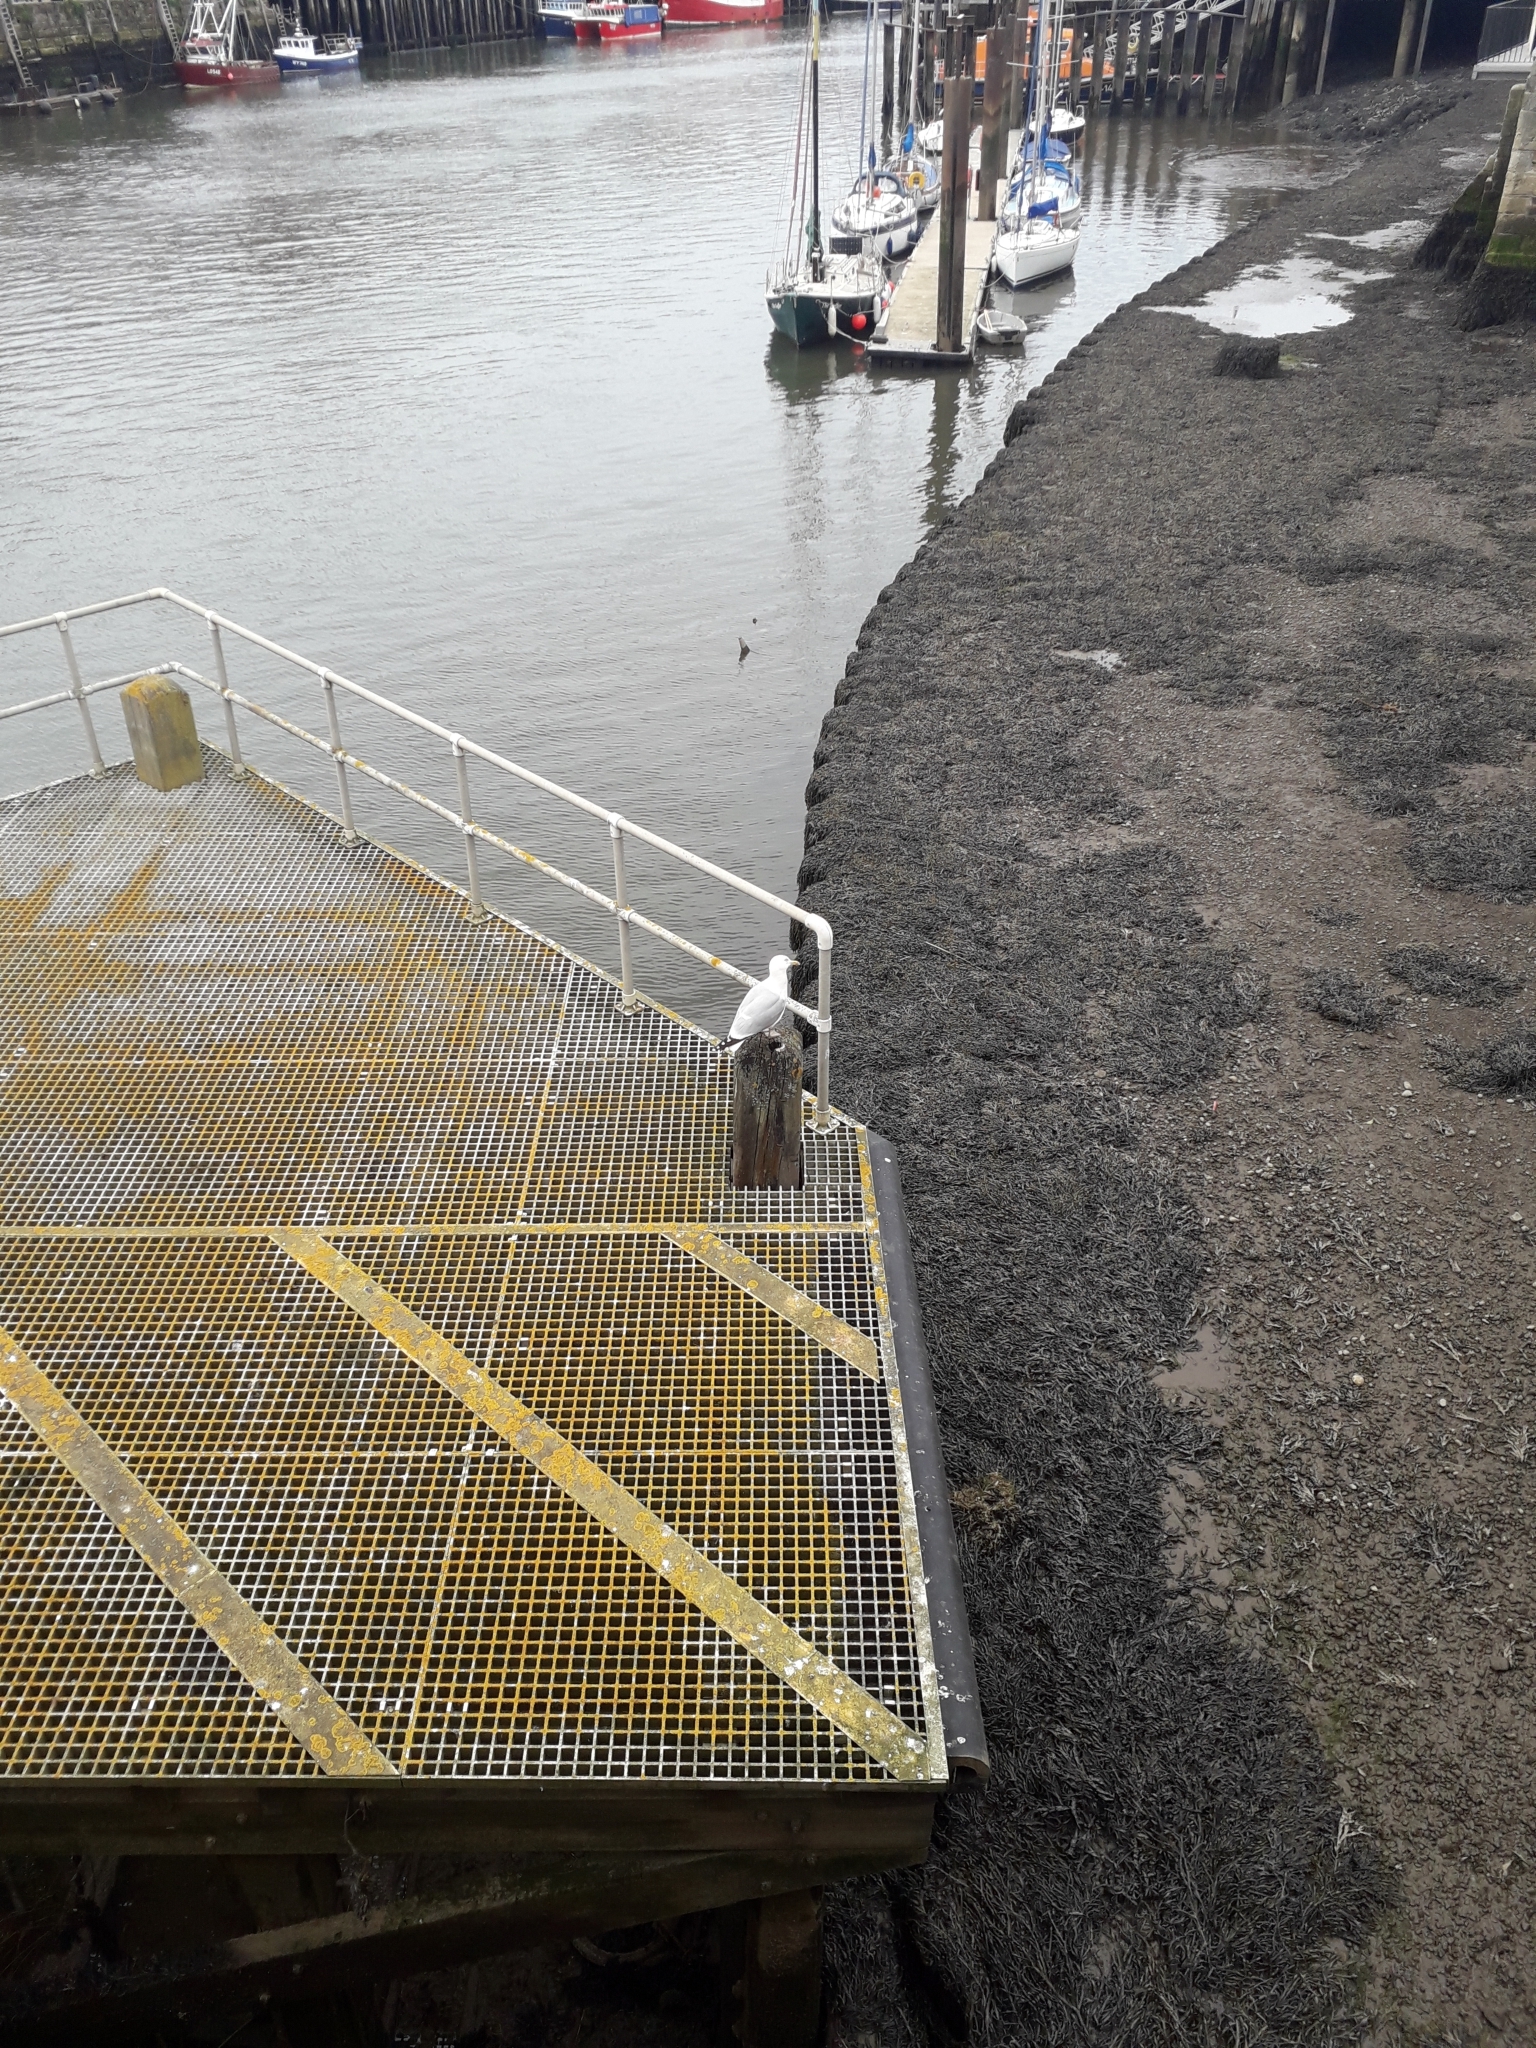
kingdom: Animalia
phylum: Chordata
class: Aves
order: Charadriiformes
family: Laridae
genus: Larus
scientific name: Larus argentatus
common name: Herring gull
